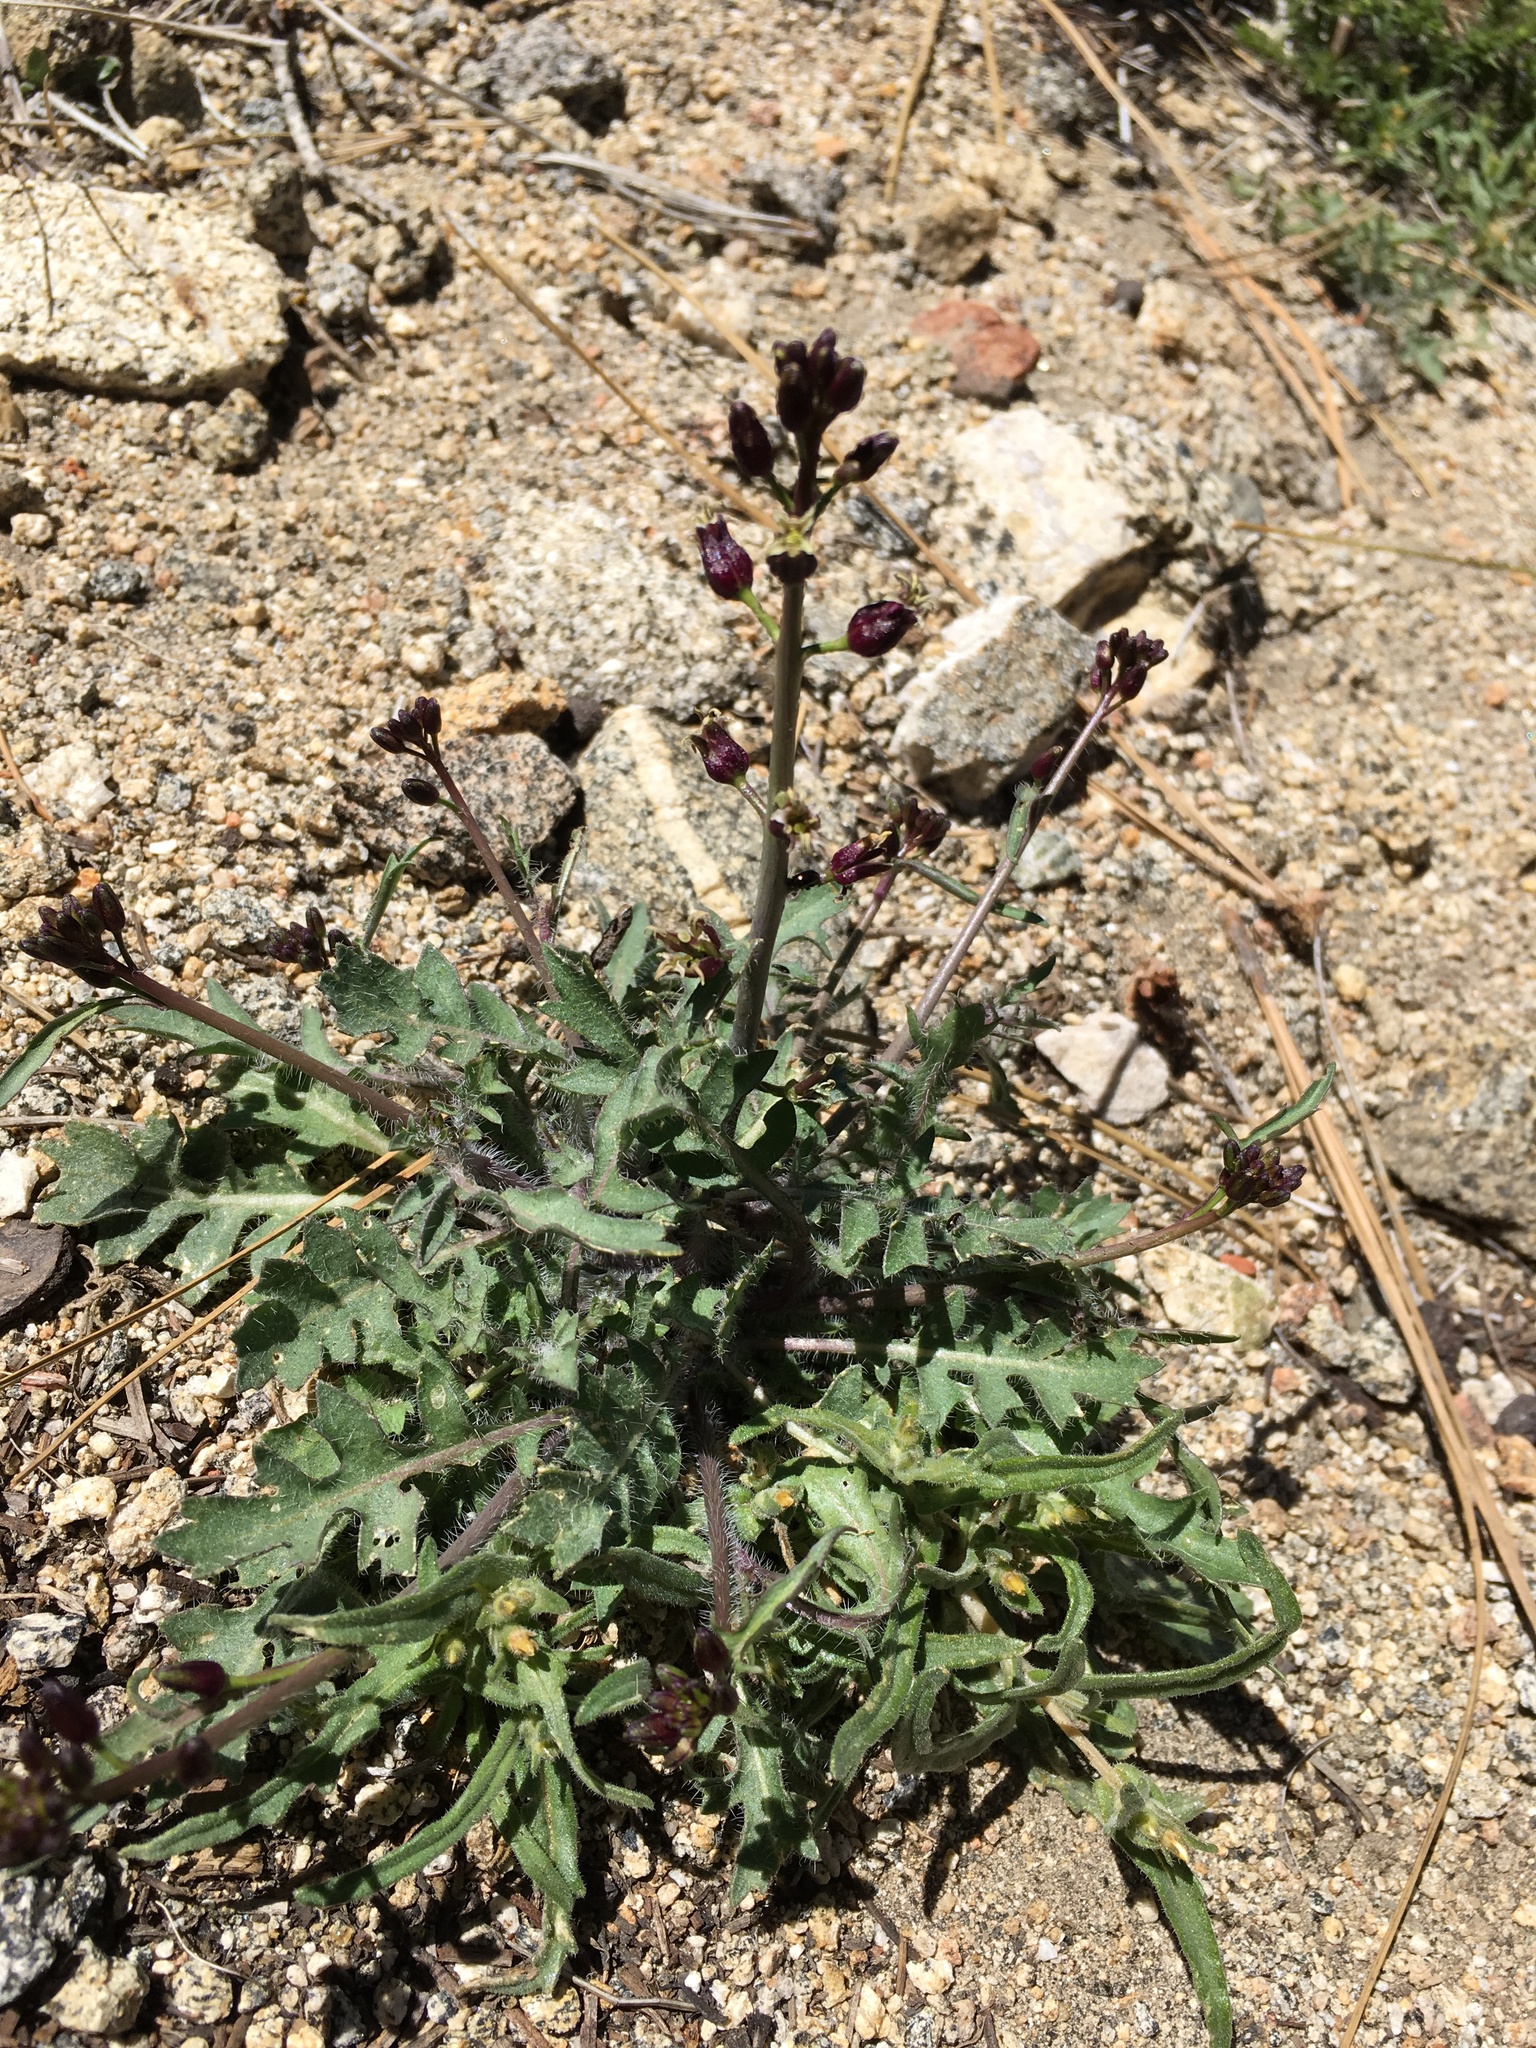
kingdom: Plantae
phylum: Tracheophyta
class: Magnoliopsida
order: Brassicales
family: Brassicaceae
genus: Streptanthus
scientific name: Streptanthus pilosus
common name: Chocolate drops
